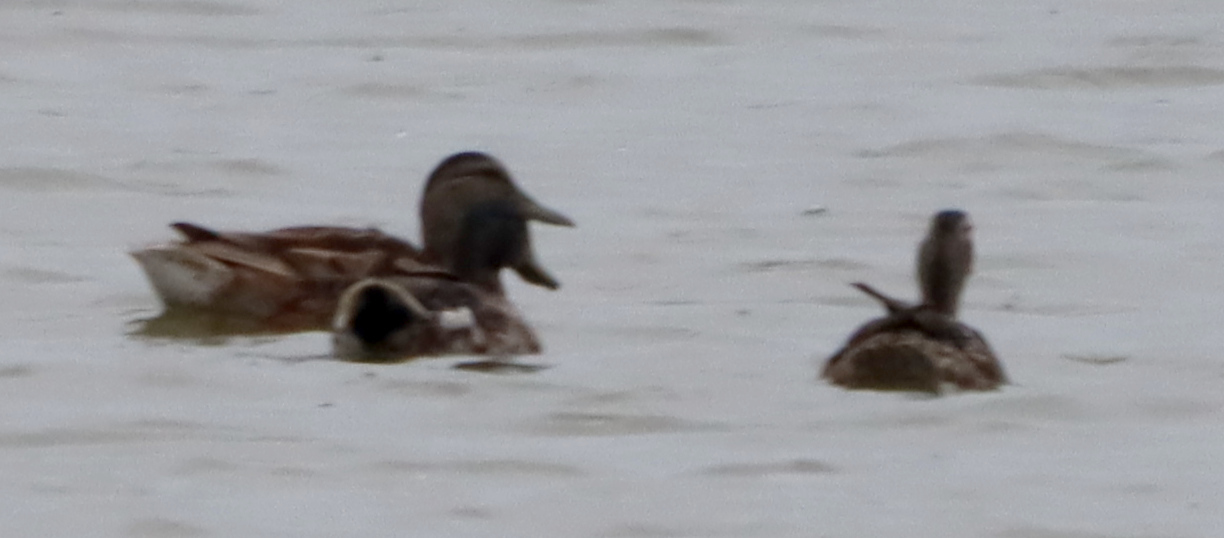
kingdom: Animalia
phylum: Chordata
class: Aves
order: Anseriformes
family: Anatidae
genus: Anas
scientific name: Anas platyrhynchos
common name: Mallard
